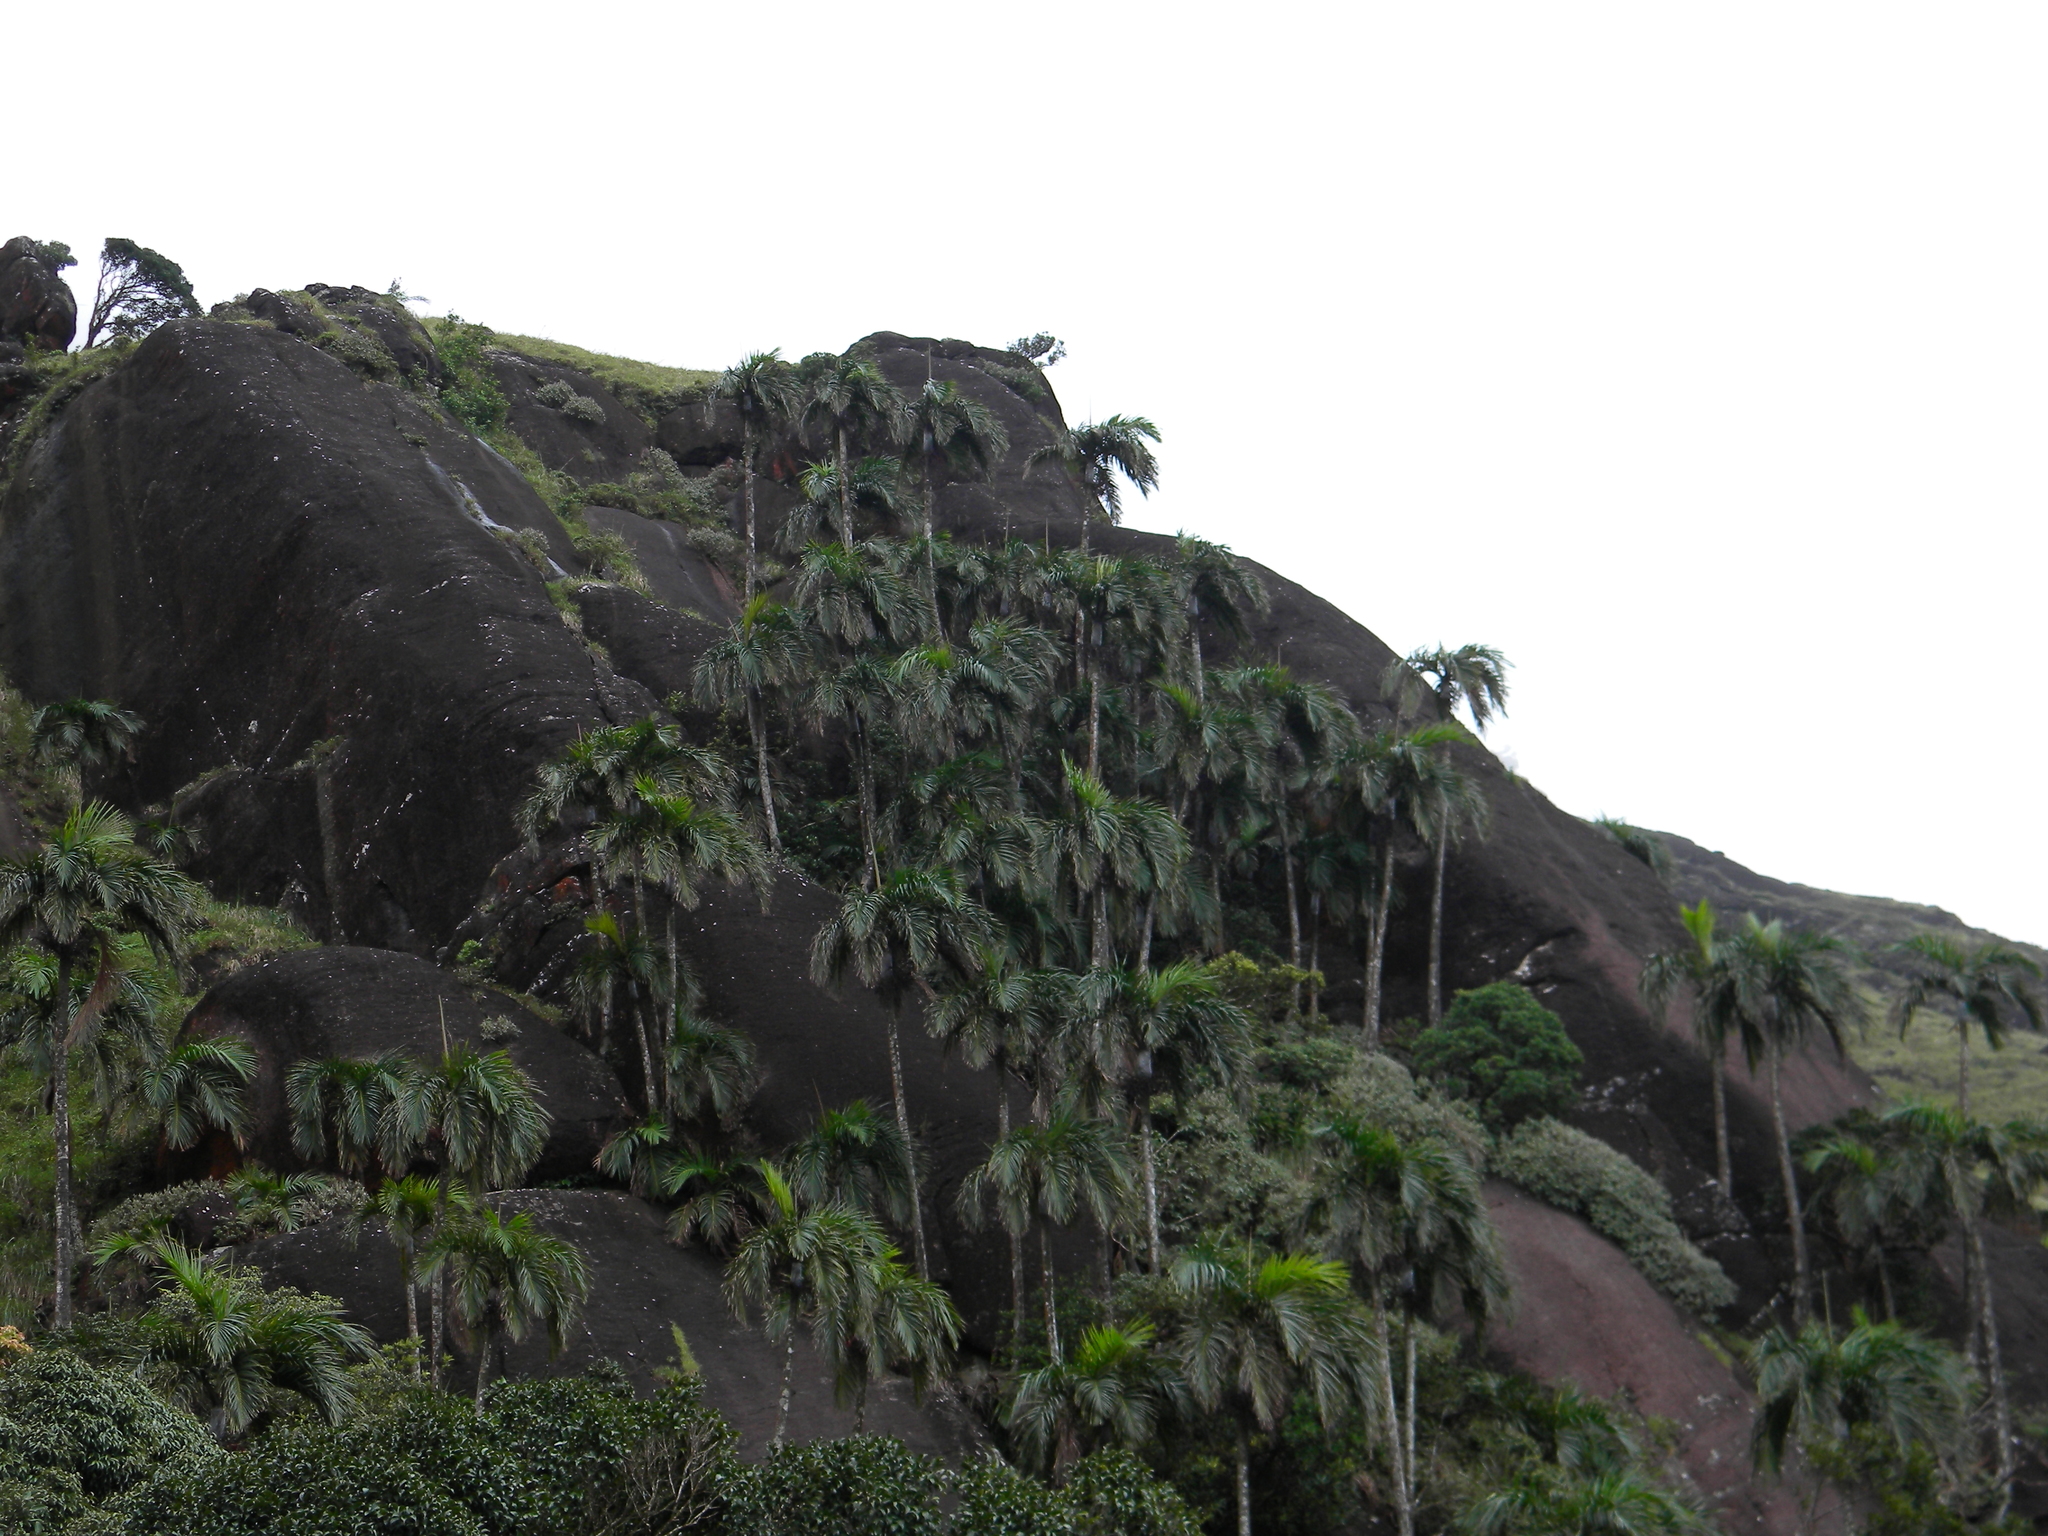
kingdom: Plantae
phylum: Tracheophyta
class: Liliopsida
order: Arecales
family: Arecaceae
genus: Bentinckia
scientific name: Bentinckia condapanna
